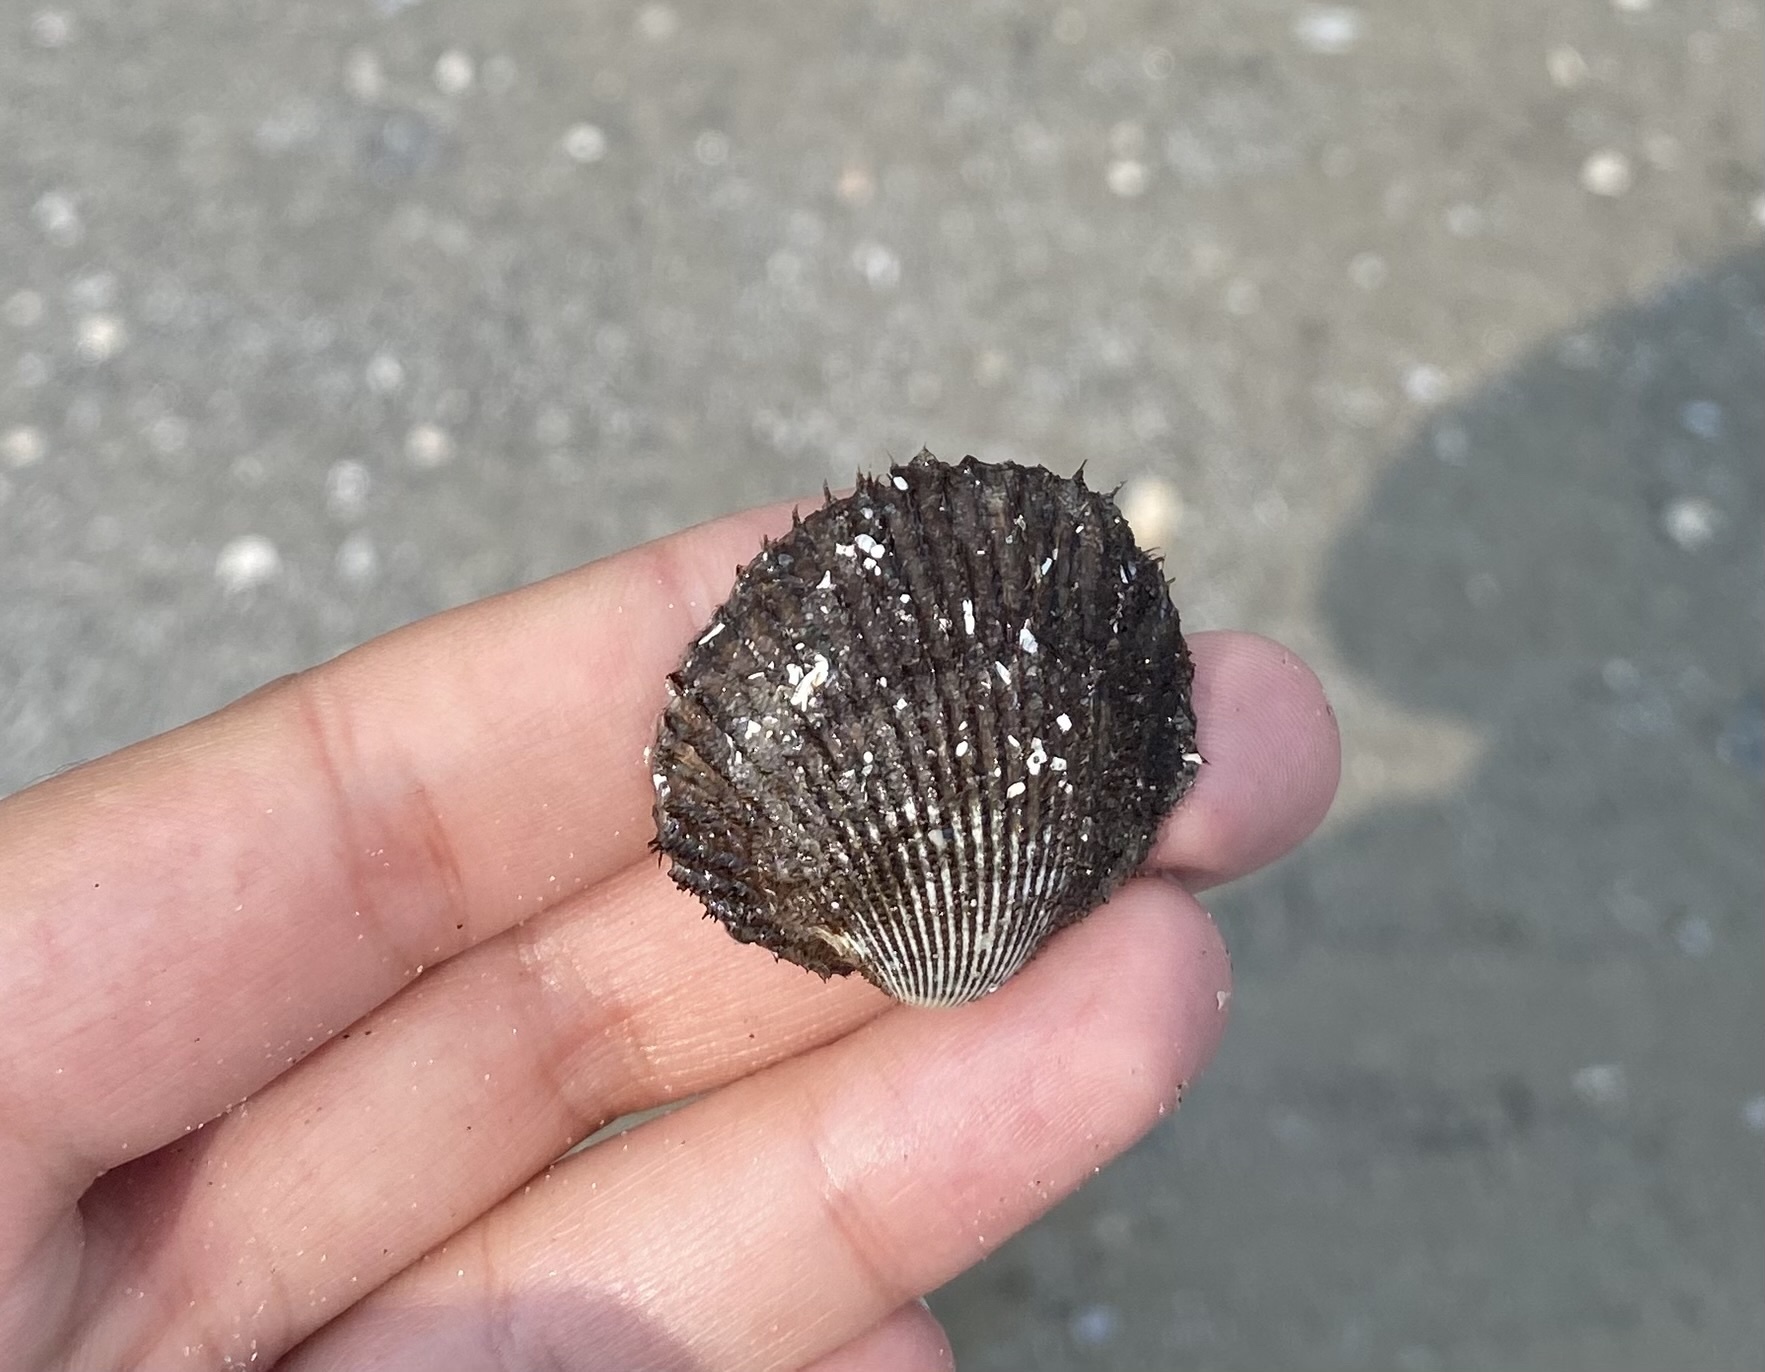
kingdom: Animalia
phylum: Mollusca
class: Bivalvia
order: Arcida
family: Arcidae
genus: Lunarca
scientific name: Lunarca ovalis
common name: Blood ark
